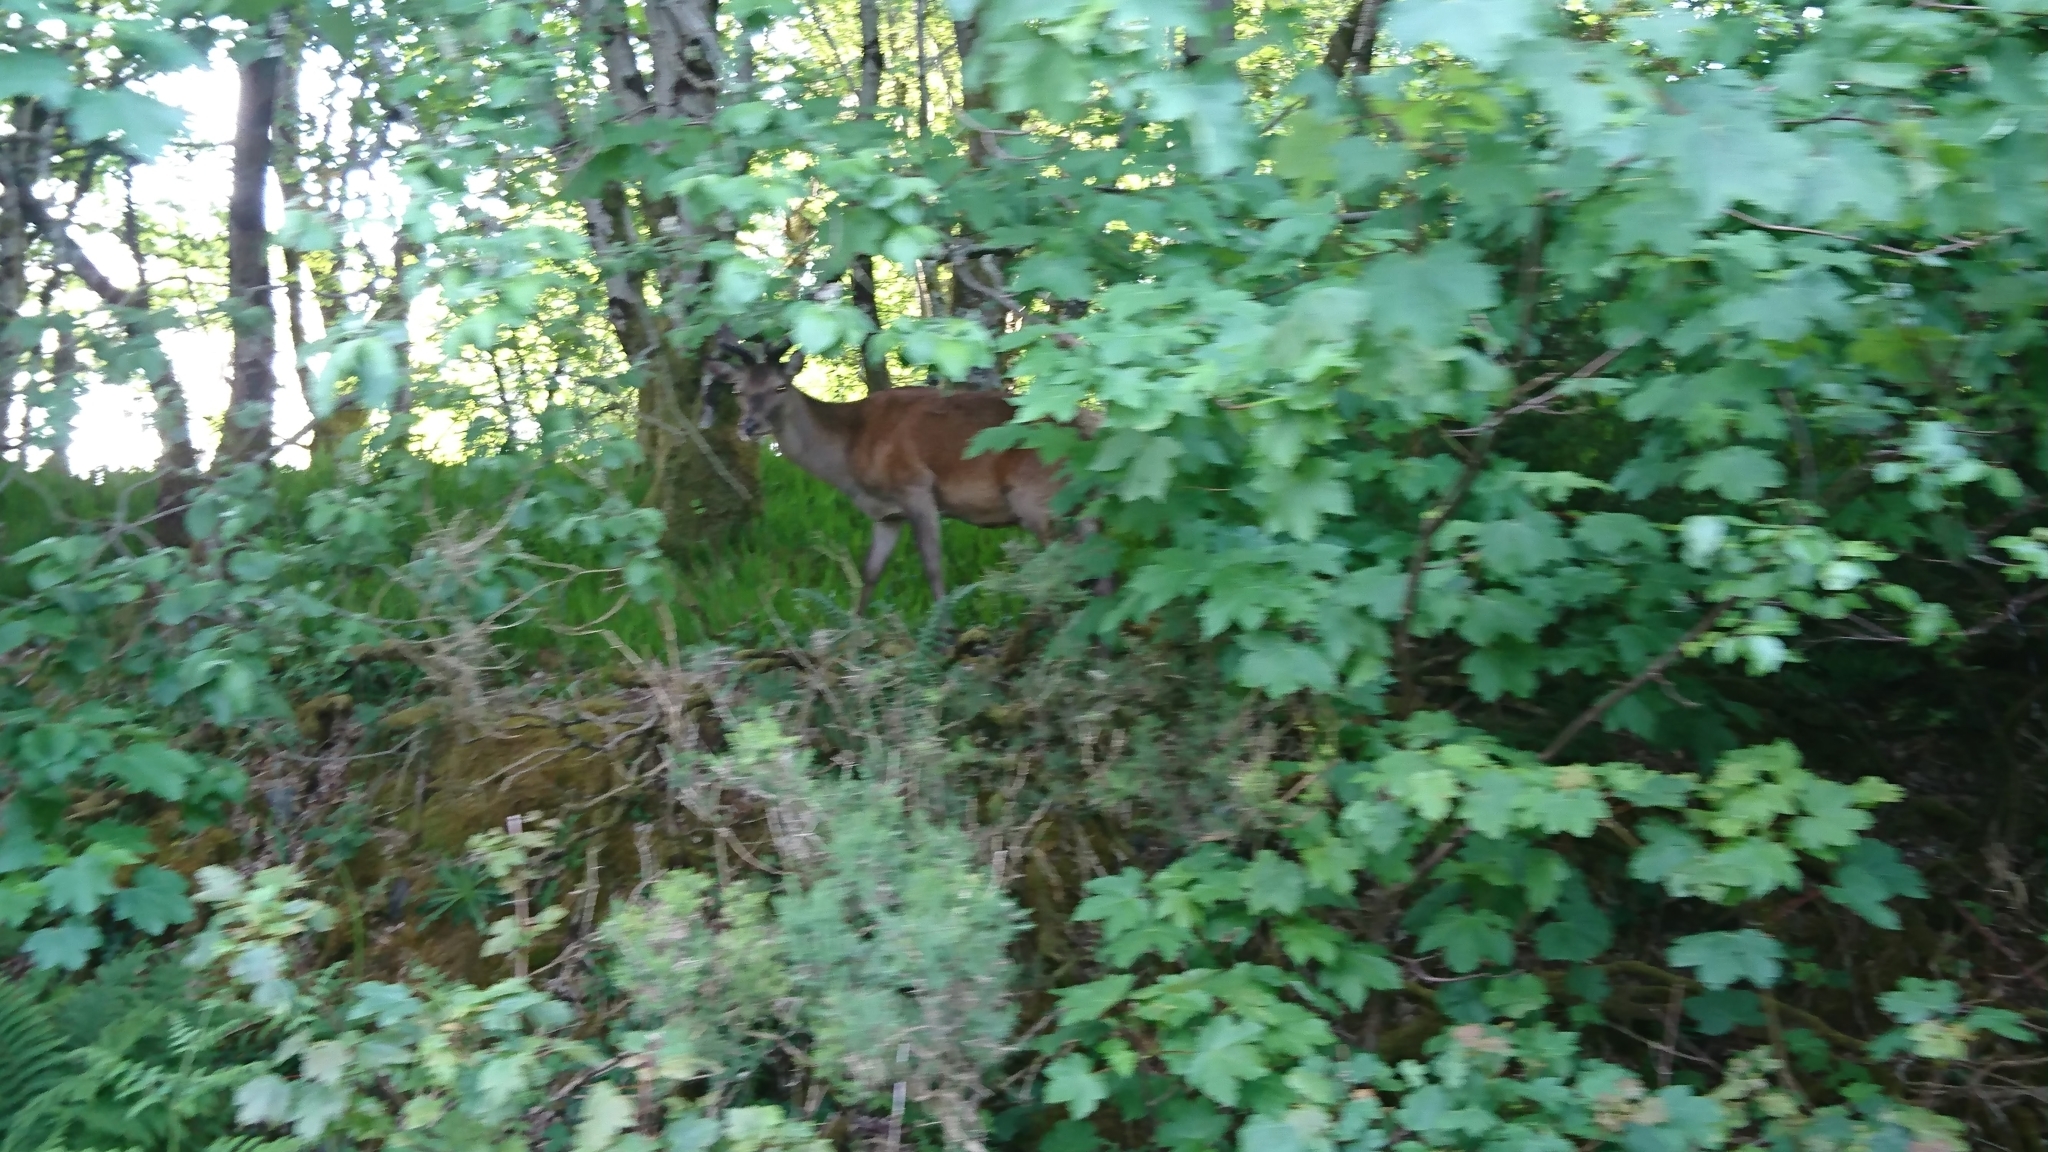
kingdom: Animalia
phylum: Chordata
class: Mammalia
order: Artiodactyla
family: Cervidae
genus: Cervus
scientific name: Cervus elaphus
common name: Red deer
